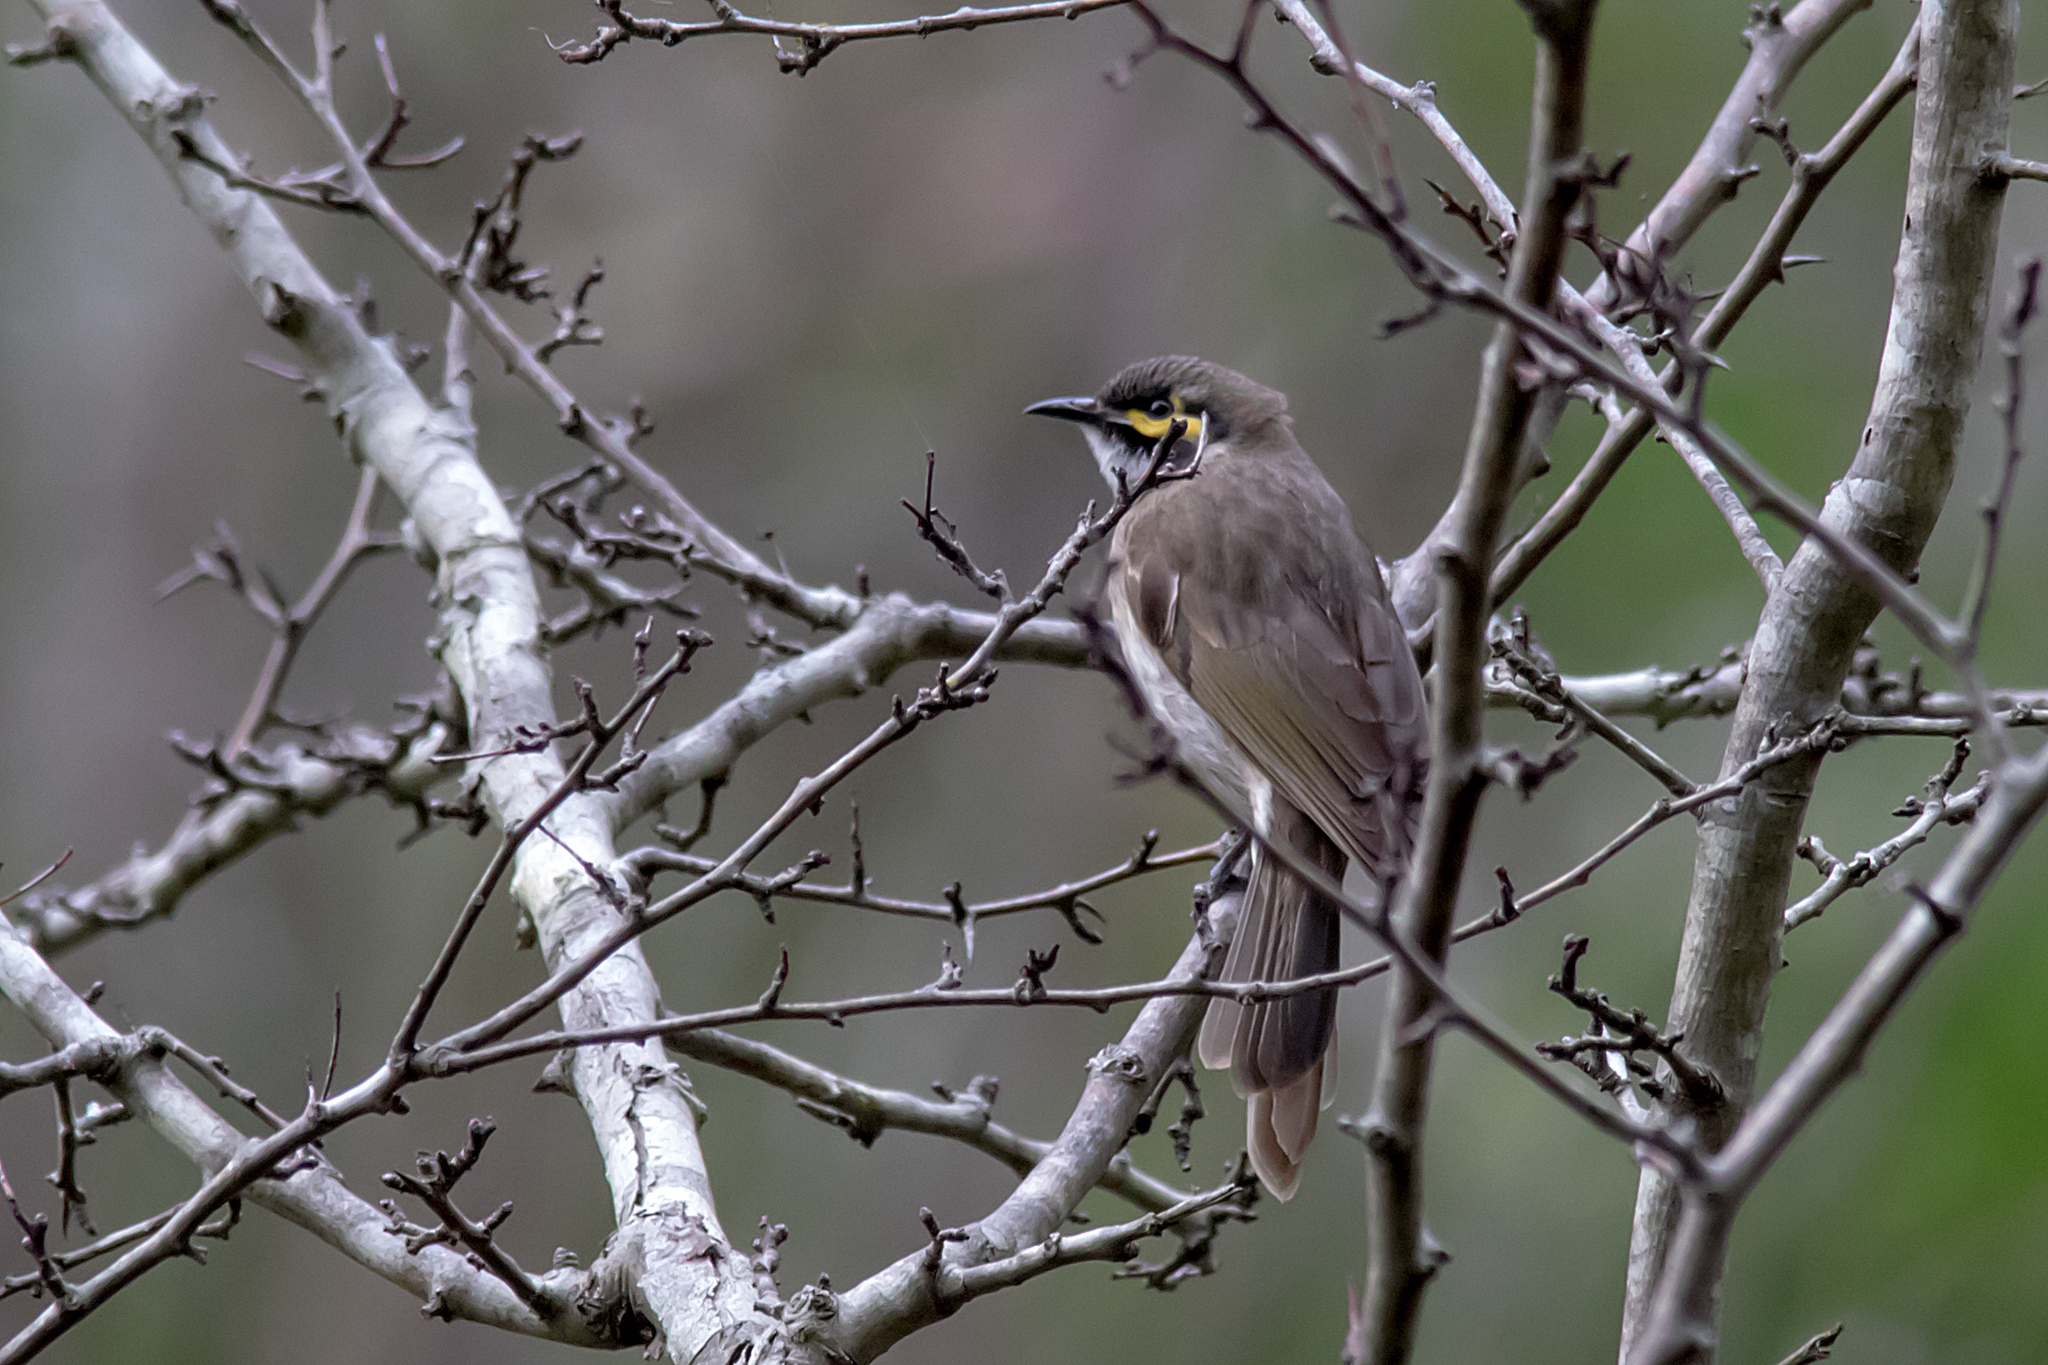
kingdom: Animalia
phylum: Chordata
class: Aves
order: Passeriformes
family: Meliphagidae
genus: Caligavis
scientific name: Caligavis chrysops
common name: Yellow-faced honeyeater
